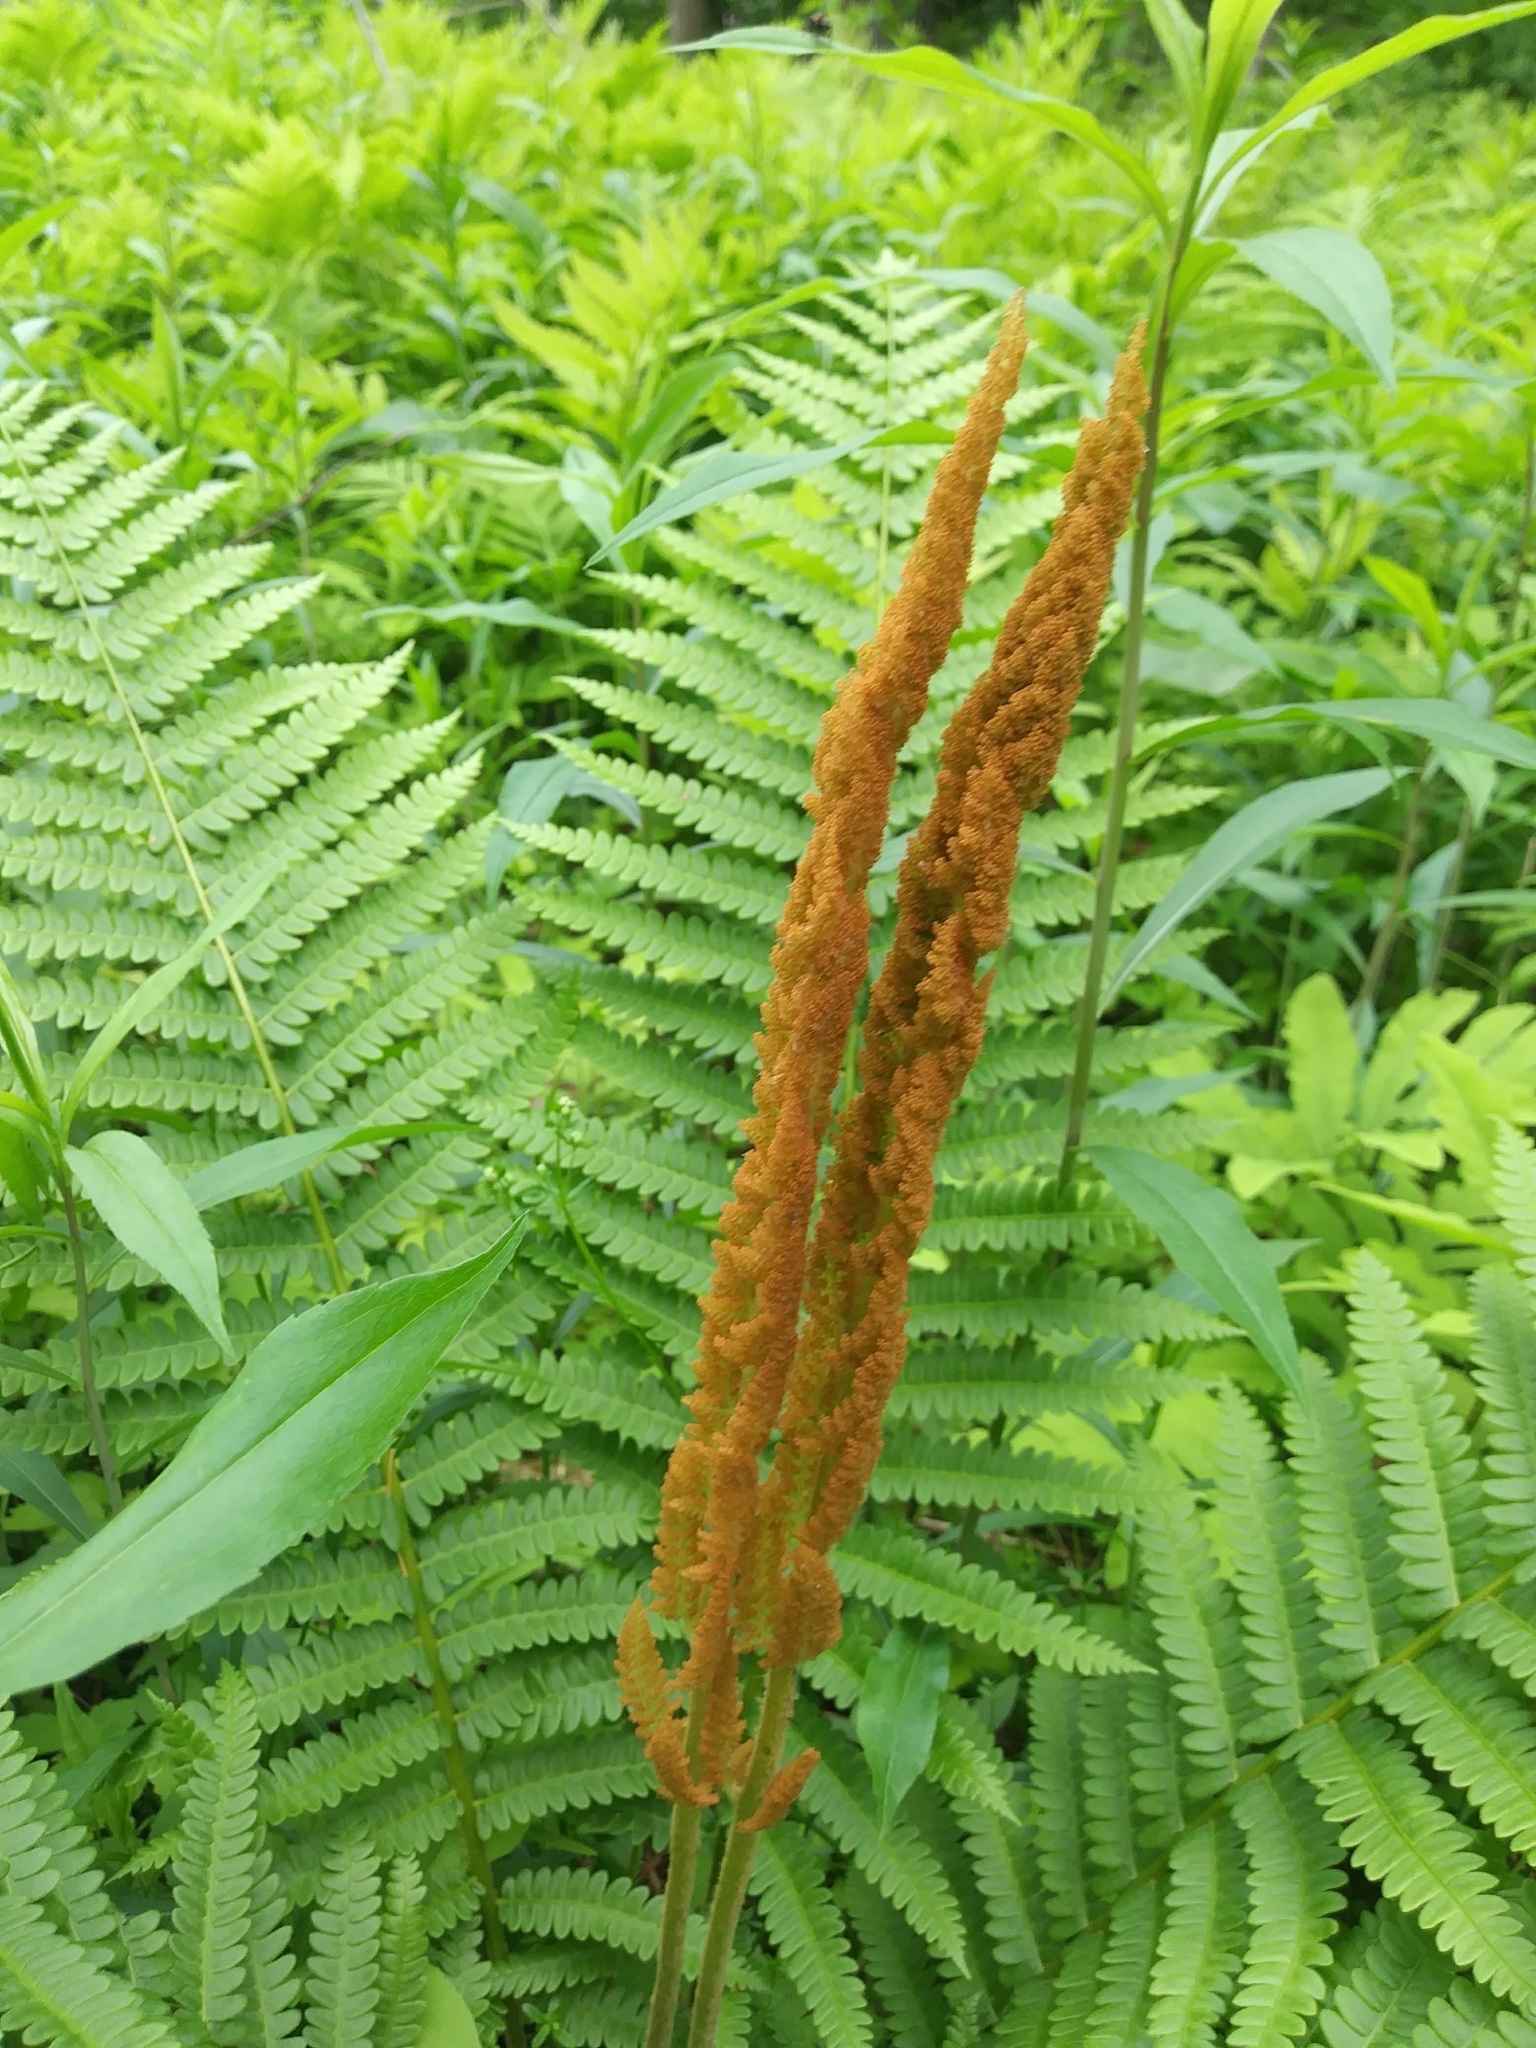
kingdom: Plantae
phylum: Tracheophyta
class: Polypodiopsida
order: Osmundales
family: Osmundaceae
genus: Osmundastrum
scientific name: Osmundastrum cinnamomeum
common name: Cinnamon fern
